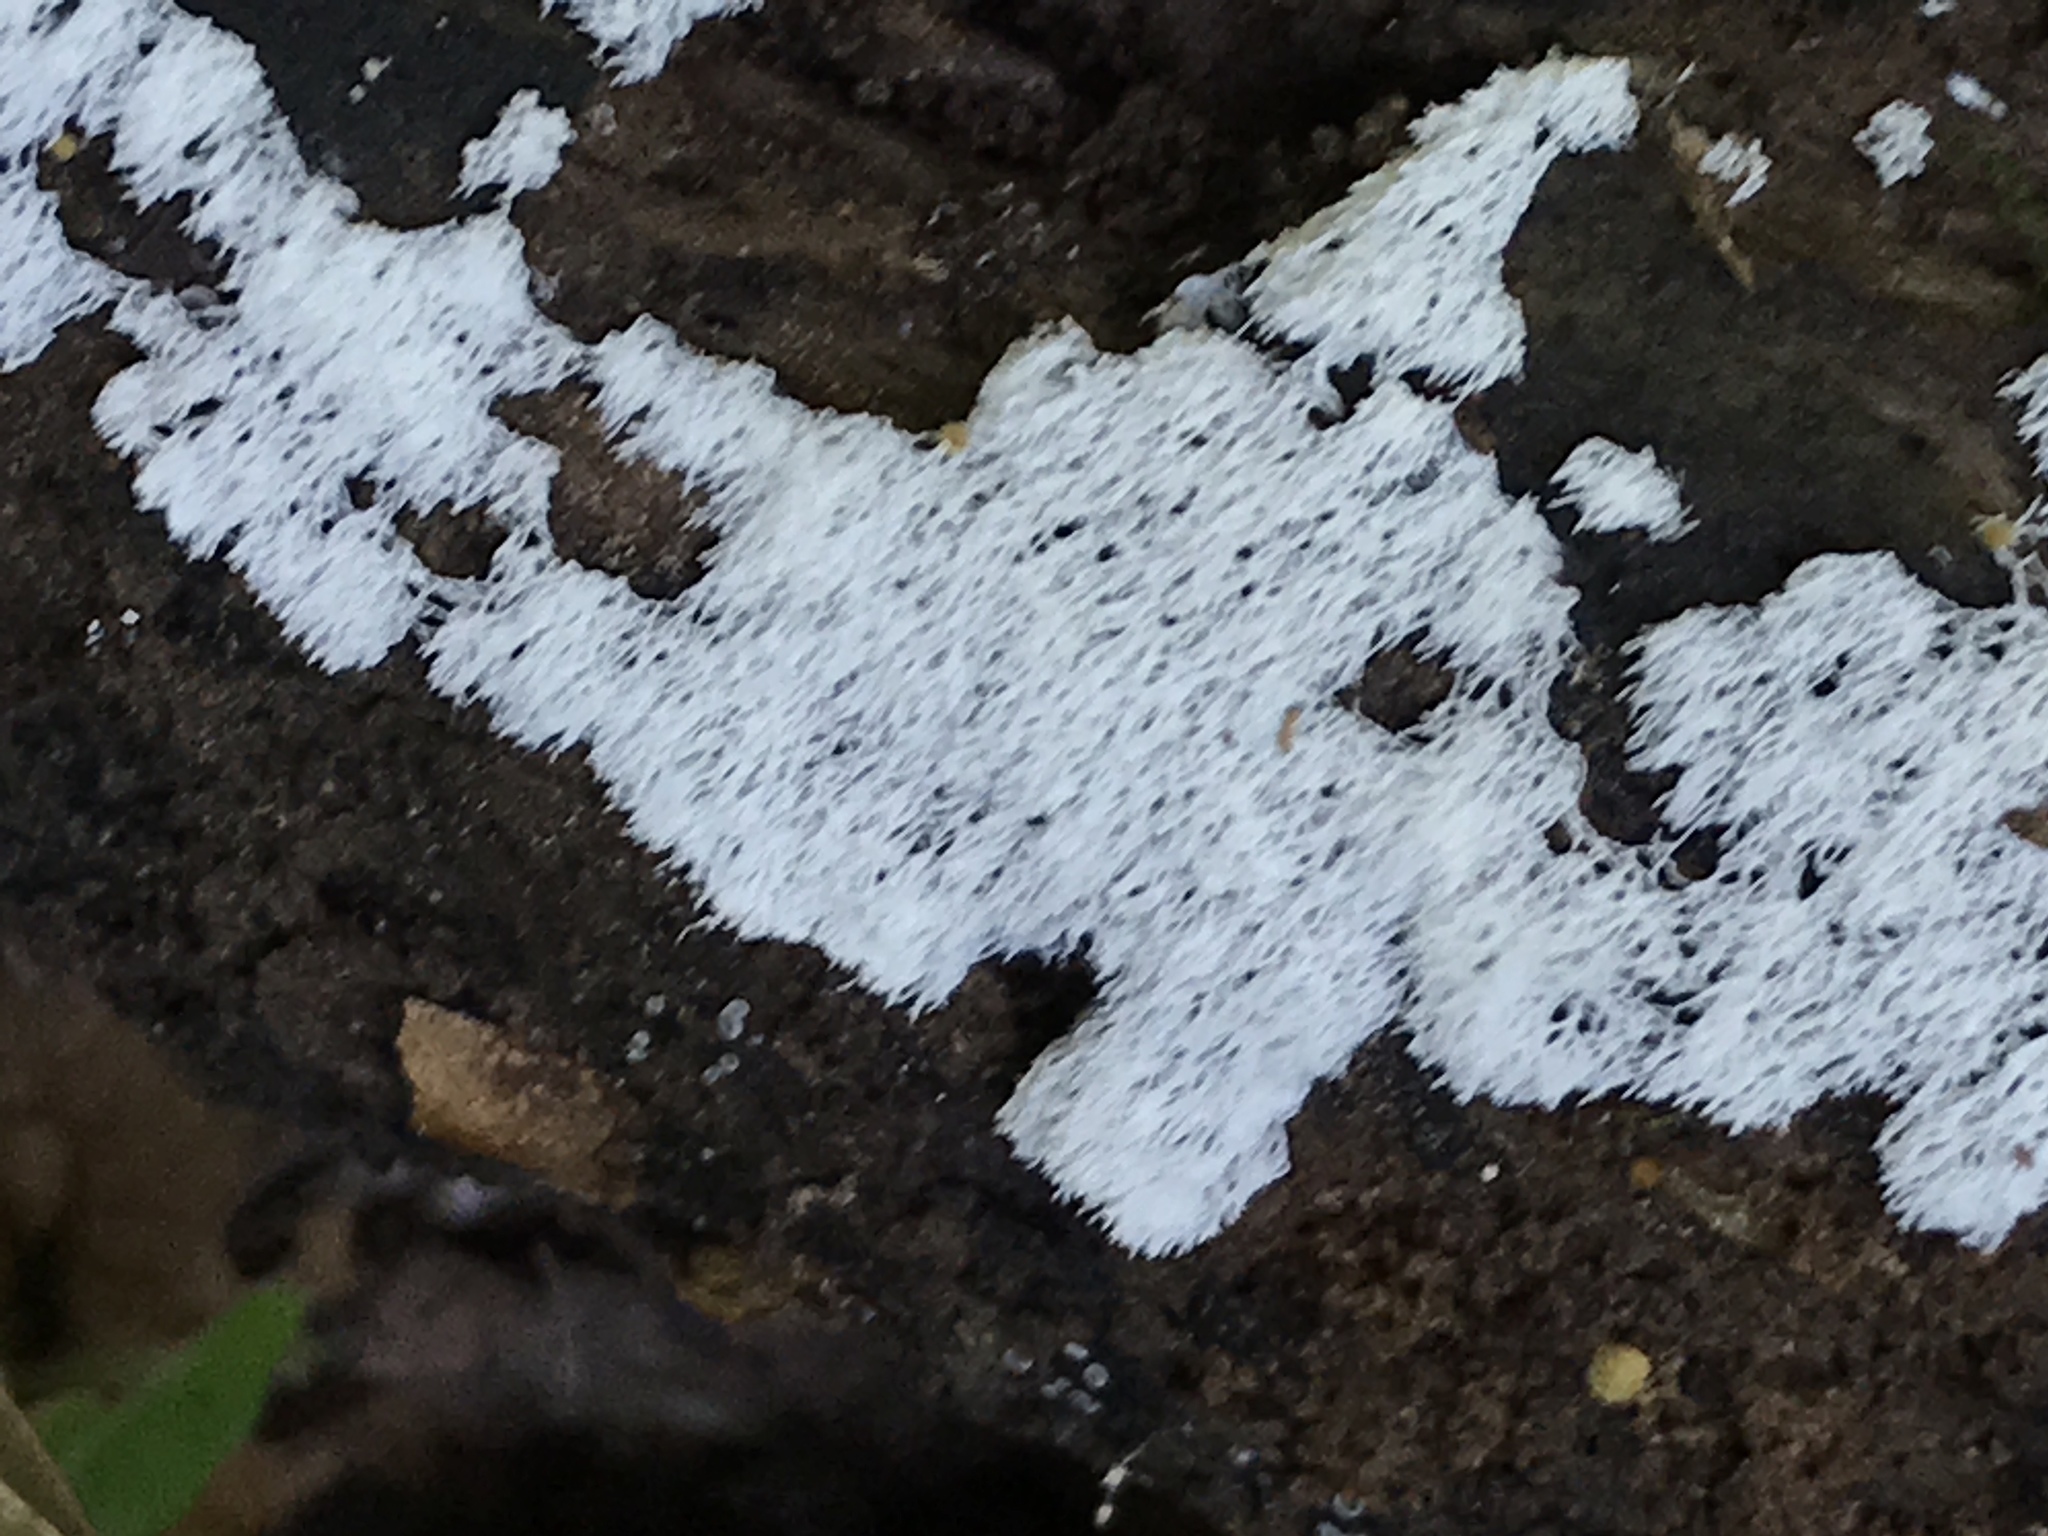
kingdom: Protozoa
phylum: Mycetozoa
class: Protosteliomycetes
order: Ceratiomyxales
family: Ceratiomyxaceae
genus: Ceratiomyxa
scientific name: Ceratiomyxa fruticulosa
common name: Honeycomb coral slime mold
